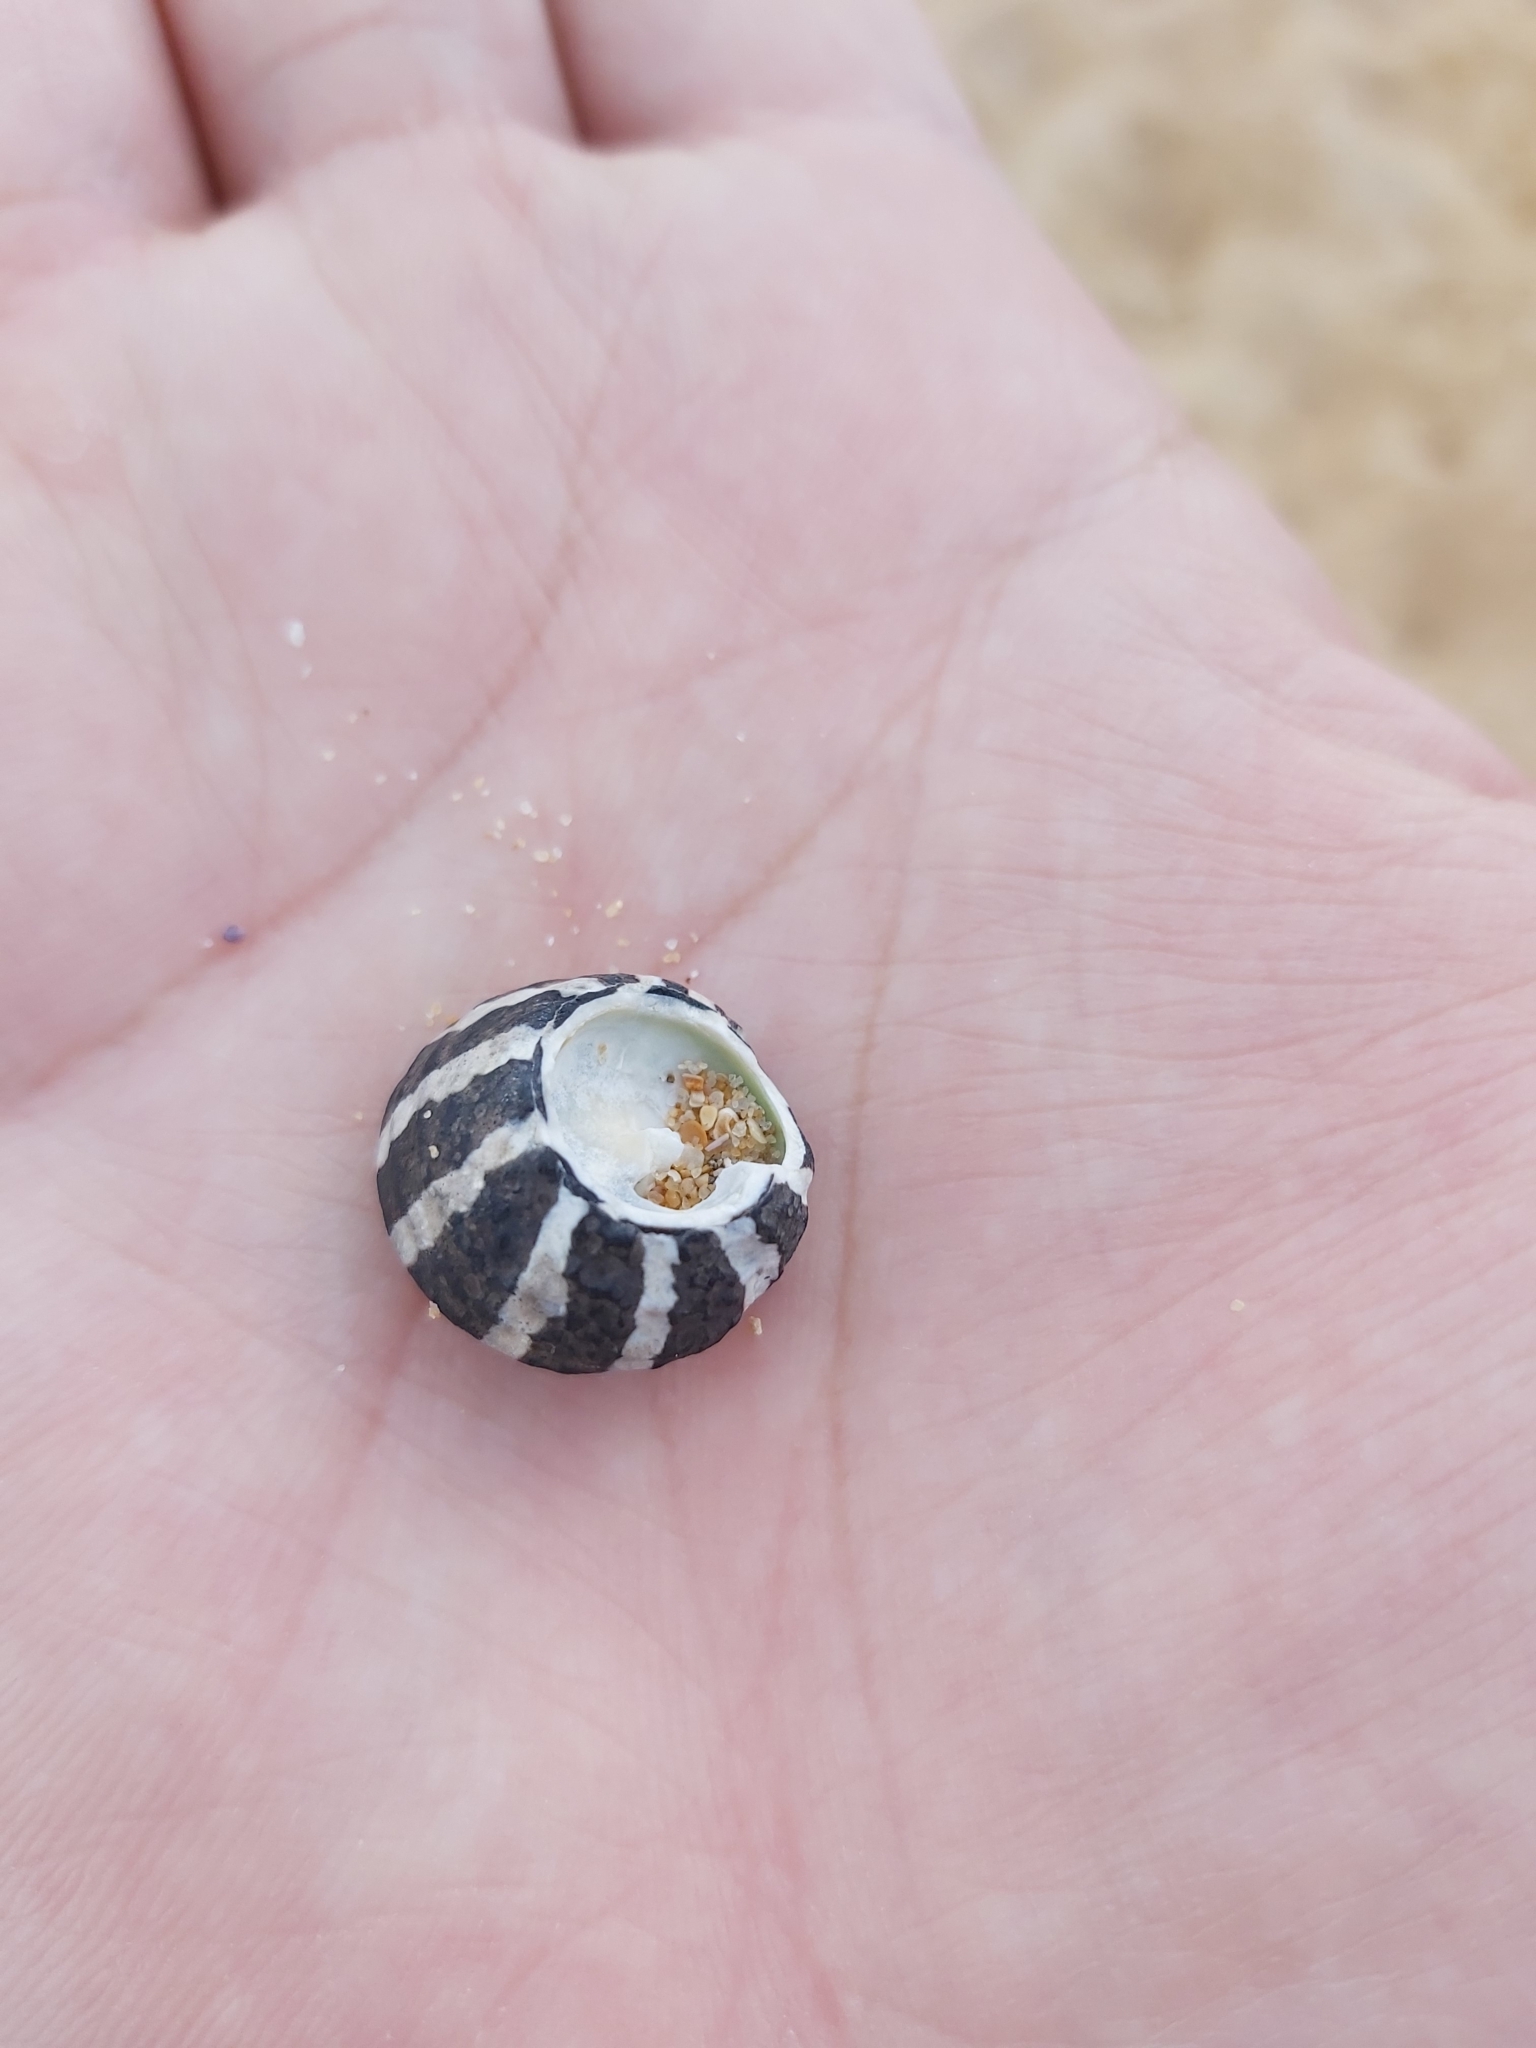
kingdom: Animalia
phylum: Mollusca
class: Gastropoda
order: Trochida
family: Trochidae
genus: Austrocochlea
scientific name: Austrocochlea porcata
